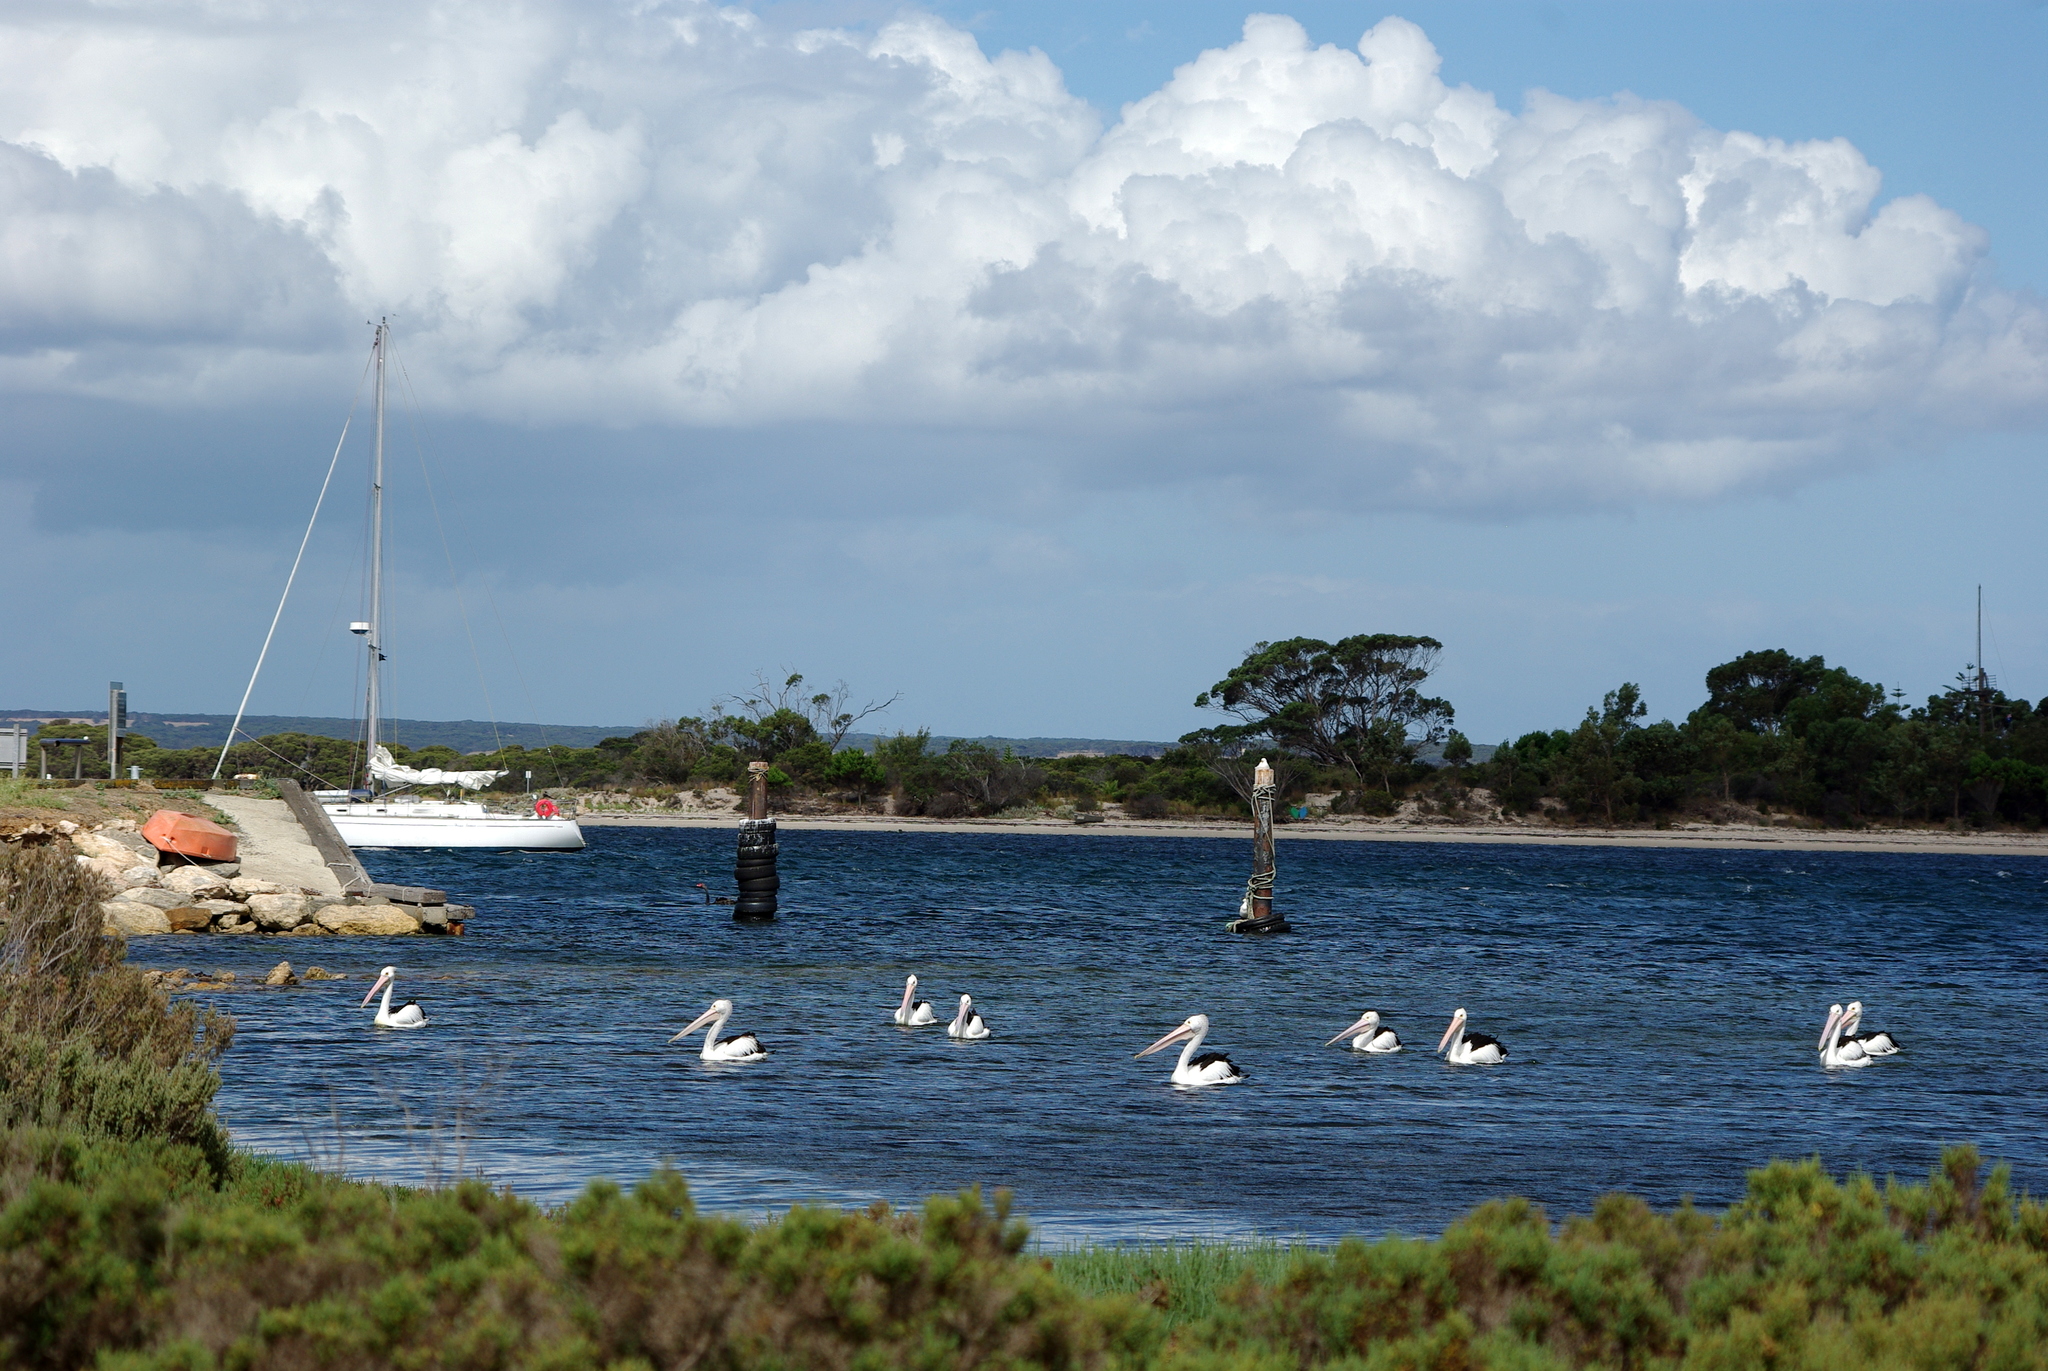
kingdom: Animalia
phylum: Chordata
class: Aves
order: Pelecaniformes
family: Pelecanidae
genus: Pelecanus
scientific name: Pelecanus conspicillatus
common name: Australian pelican
